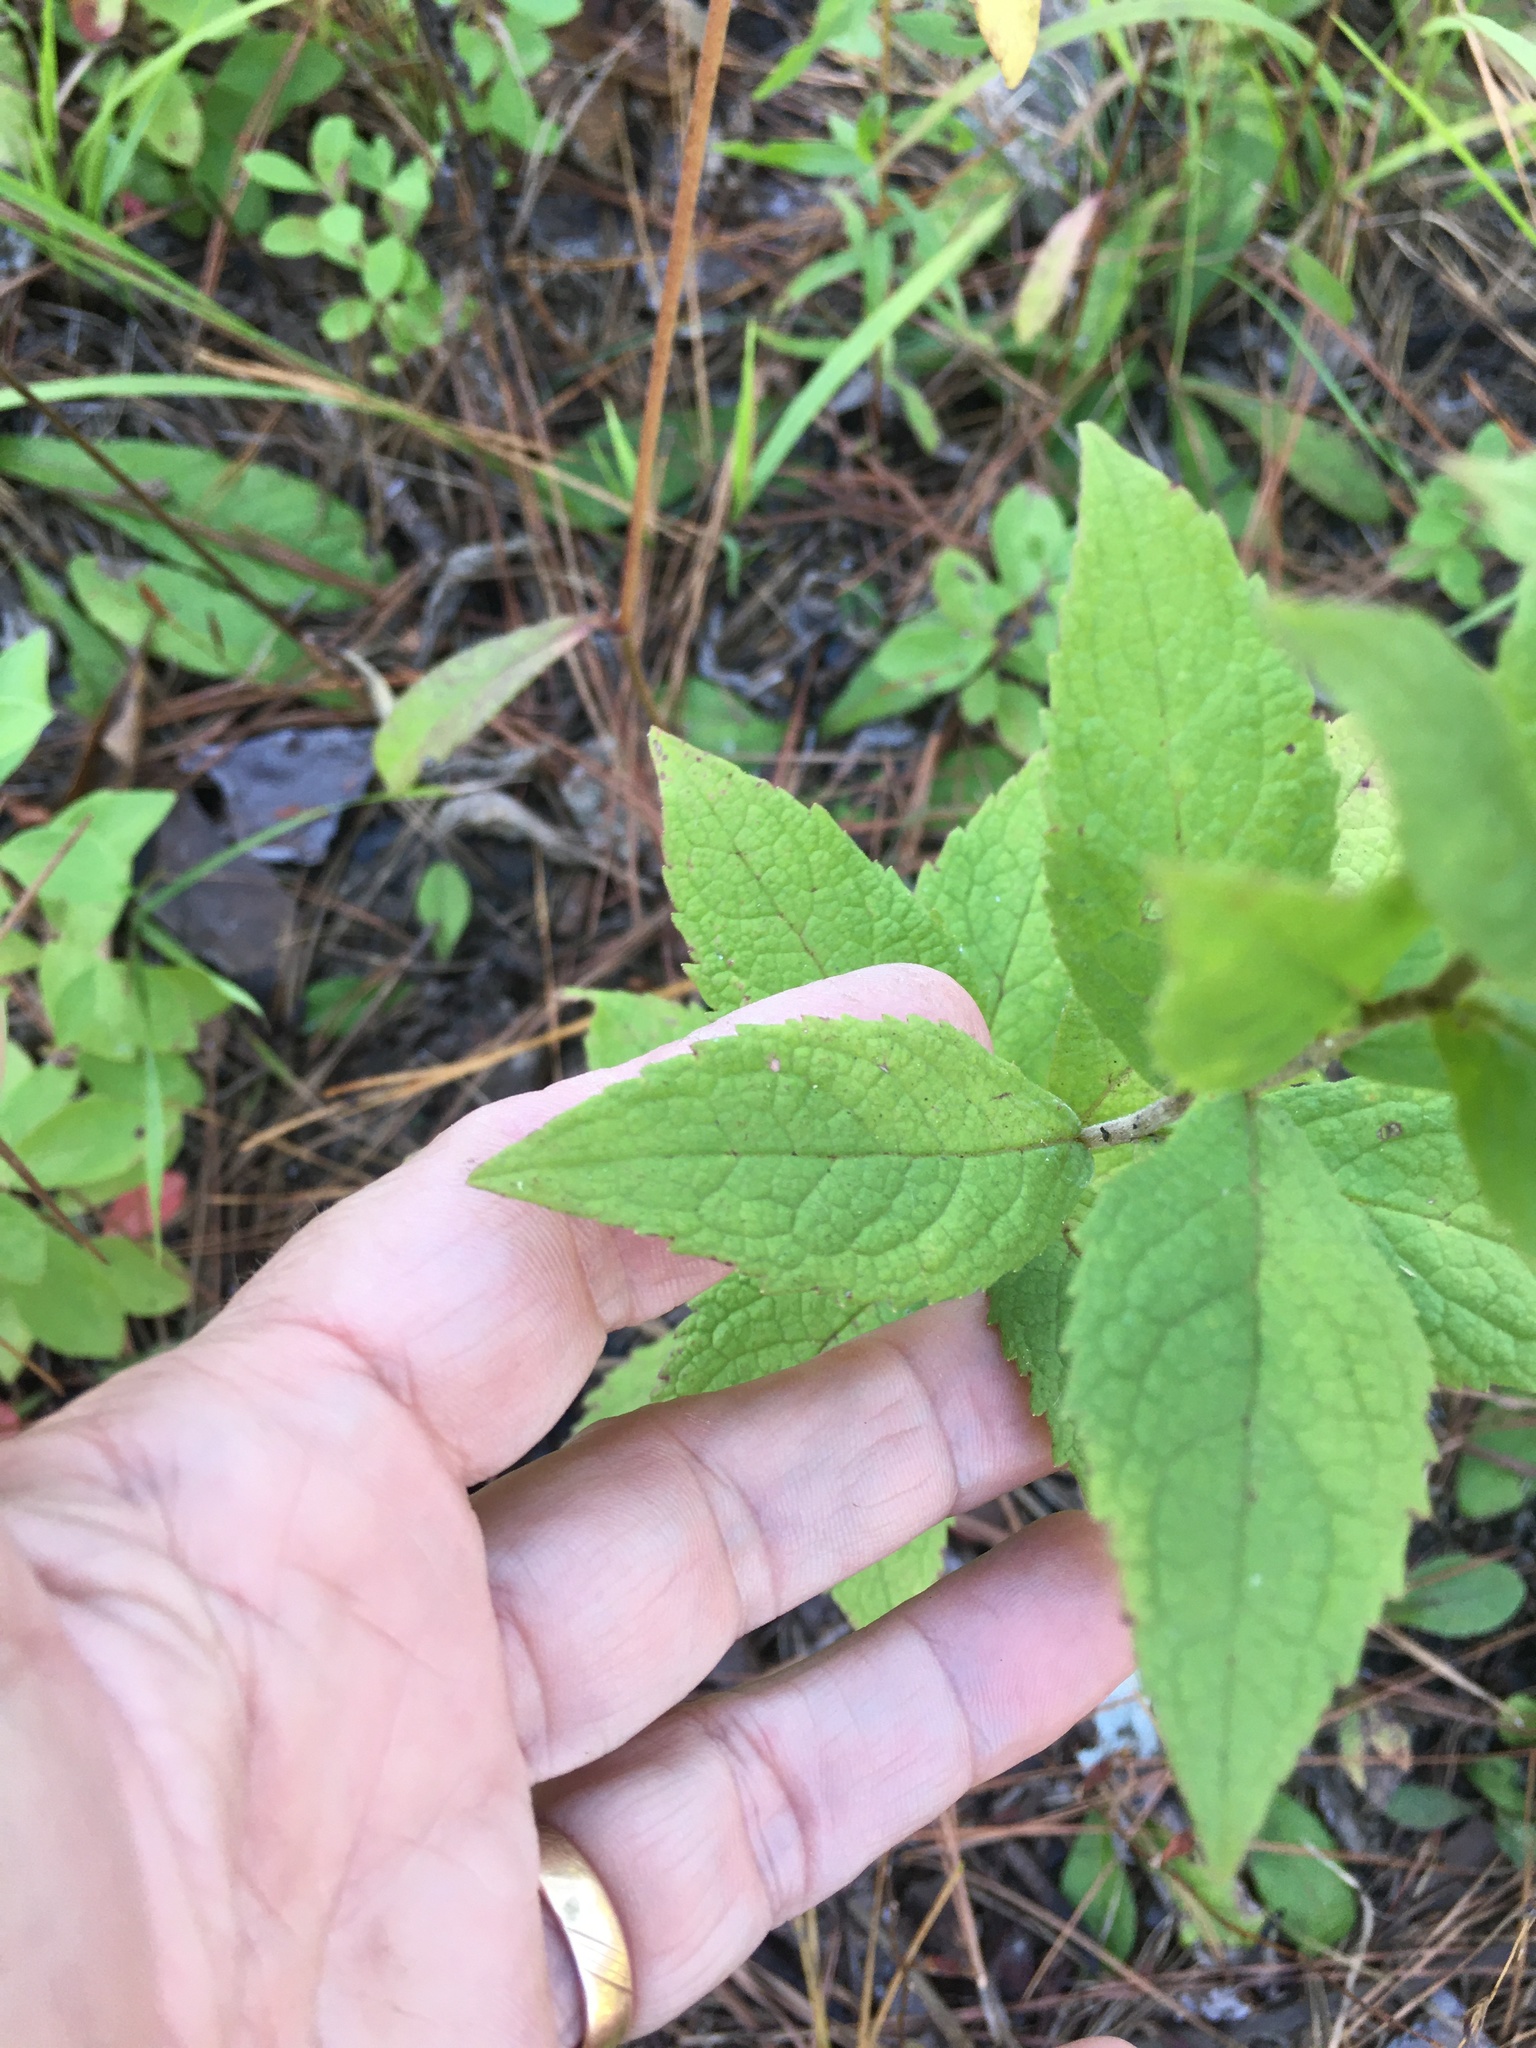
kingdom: Plantae
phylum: Tracheophyta
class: Magnoliopsida
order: Asterales
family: Asteraceae
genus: Solidago
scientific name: Solidago rugosa
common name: Rough-stemmed goldenrod
